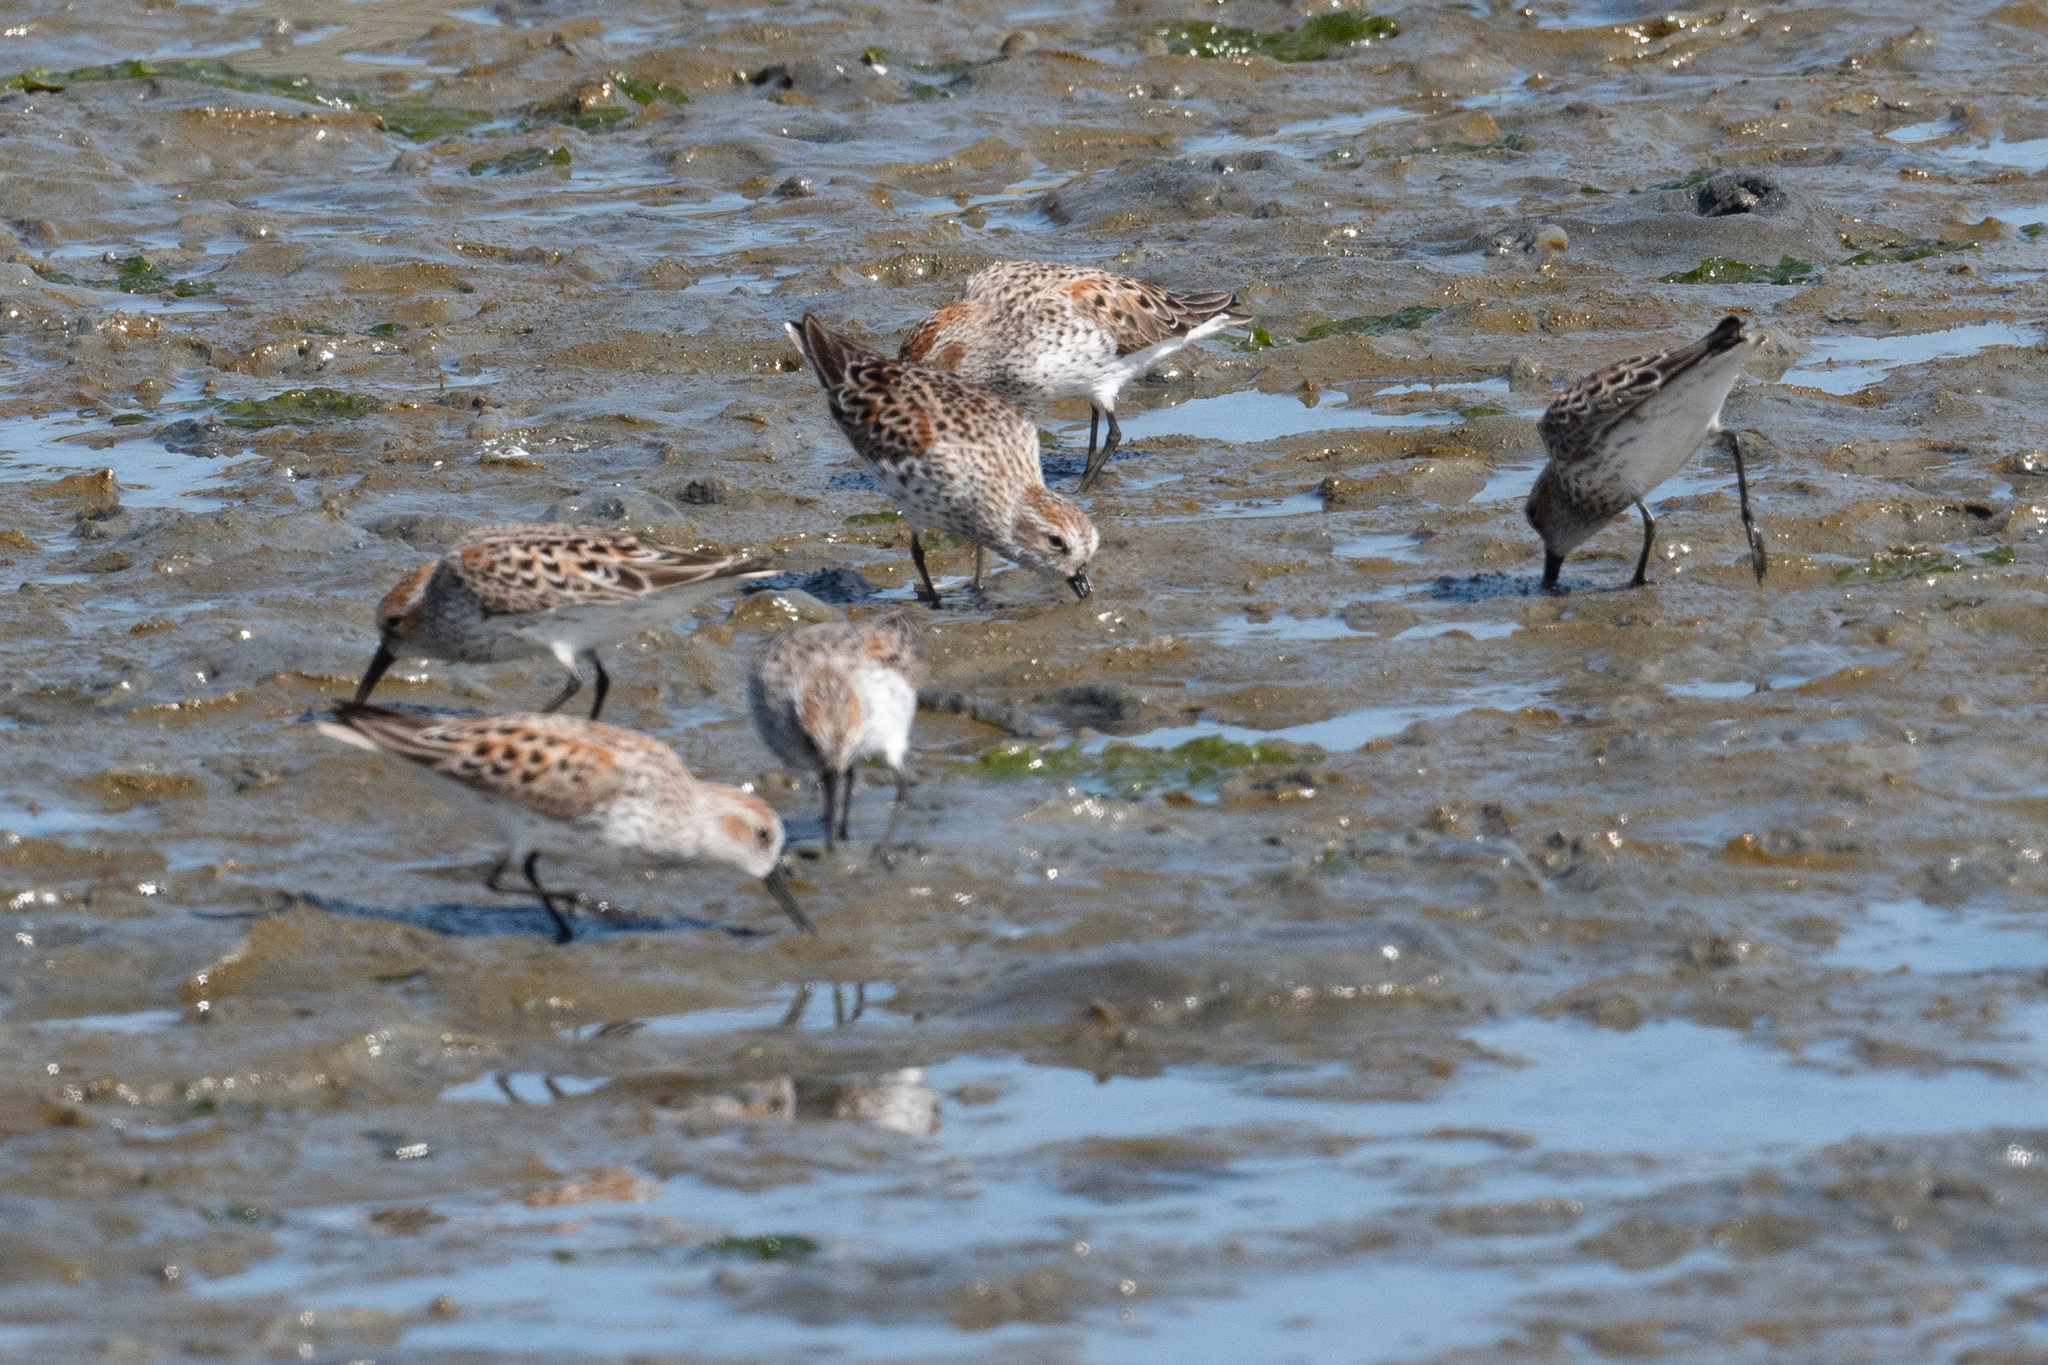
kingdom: Animalia
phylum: Chordata
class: Aves
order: Charadriiformes
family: Scolopacidae
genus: Calidris
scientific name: Calidris mauri
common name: Western sandpiper
